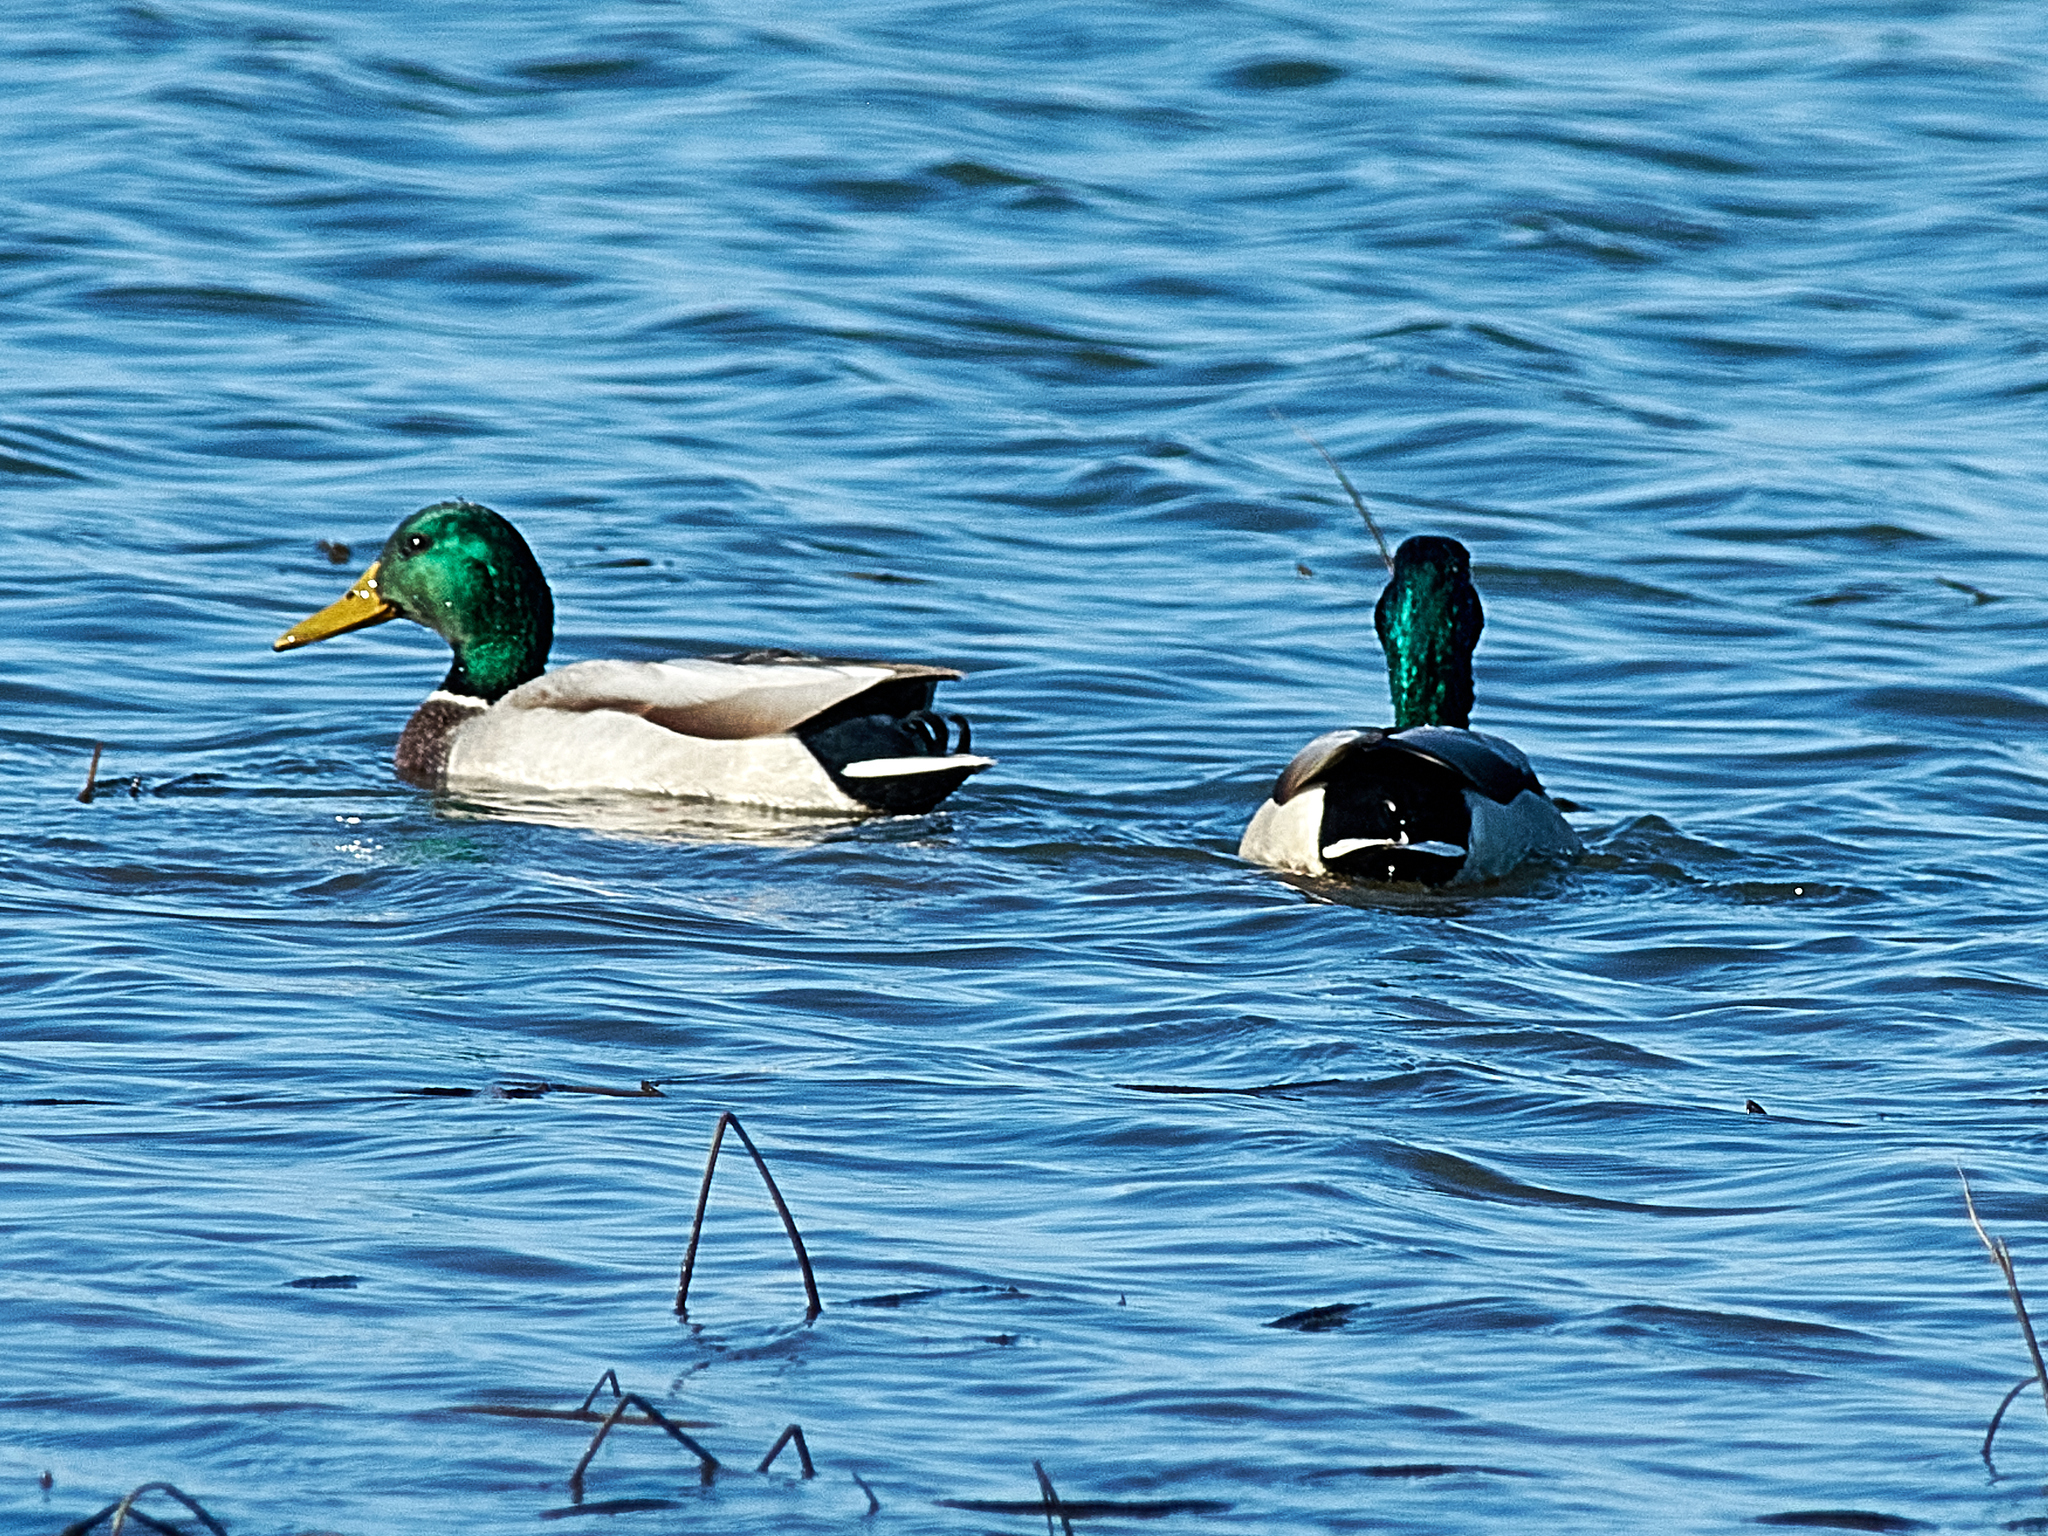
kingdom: Animalia
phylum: Chordata
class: Aves
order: Anseriformes
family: Anatidae
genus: Anas
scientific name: Anas platyrhynchos
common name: Mallard
